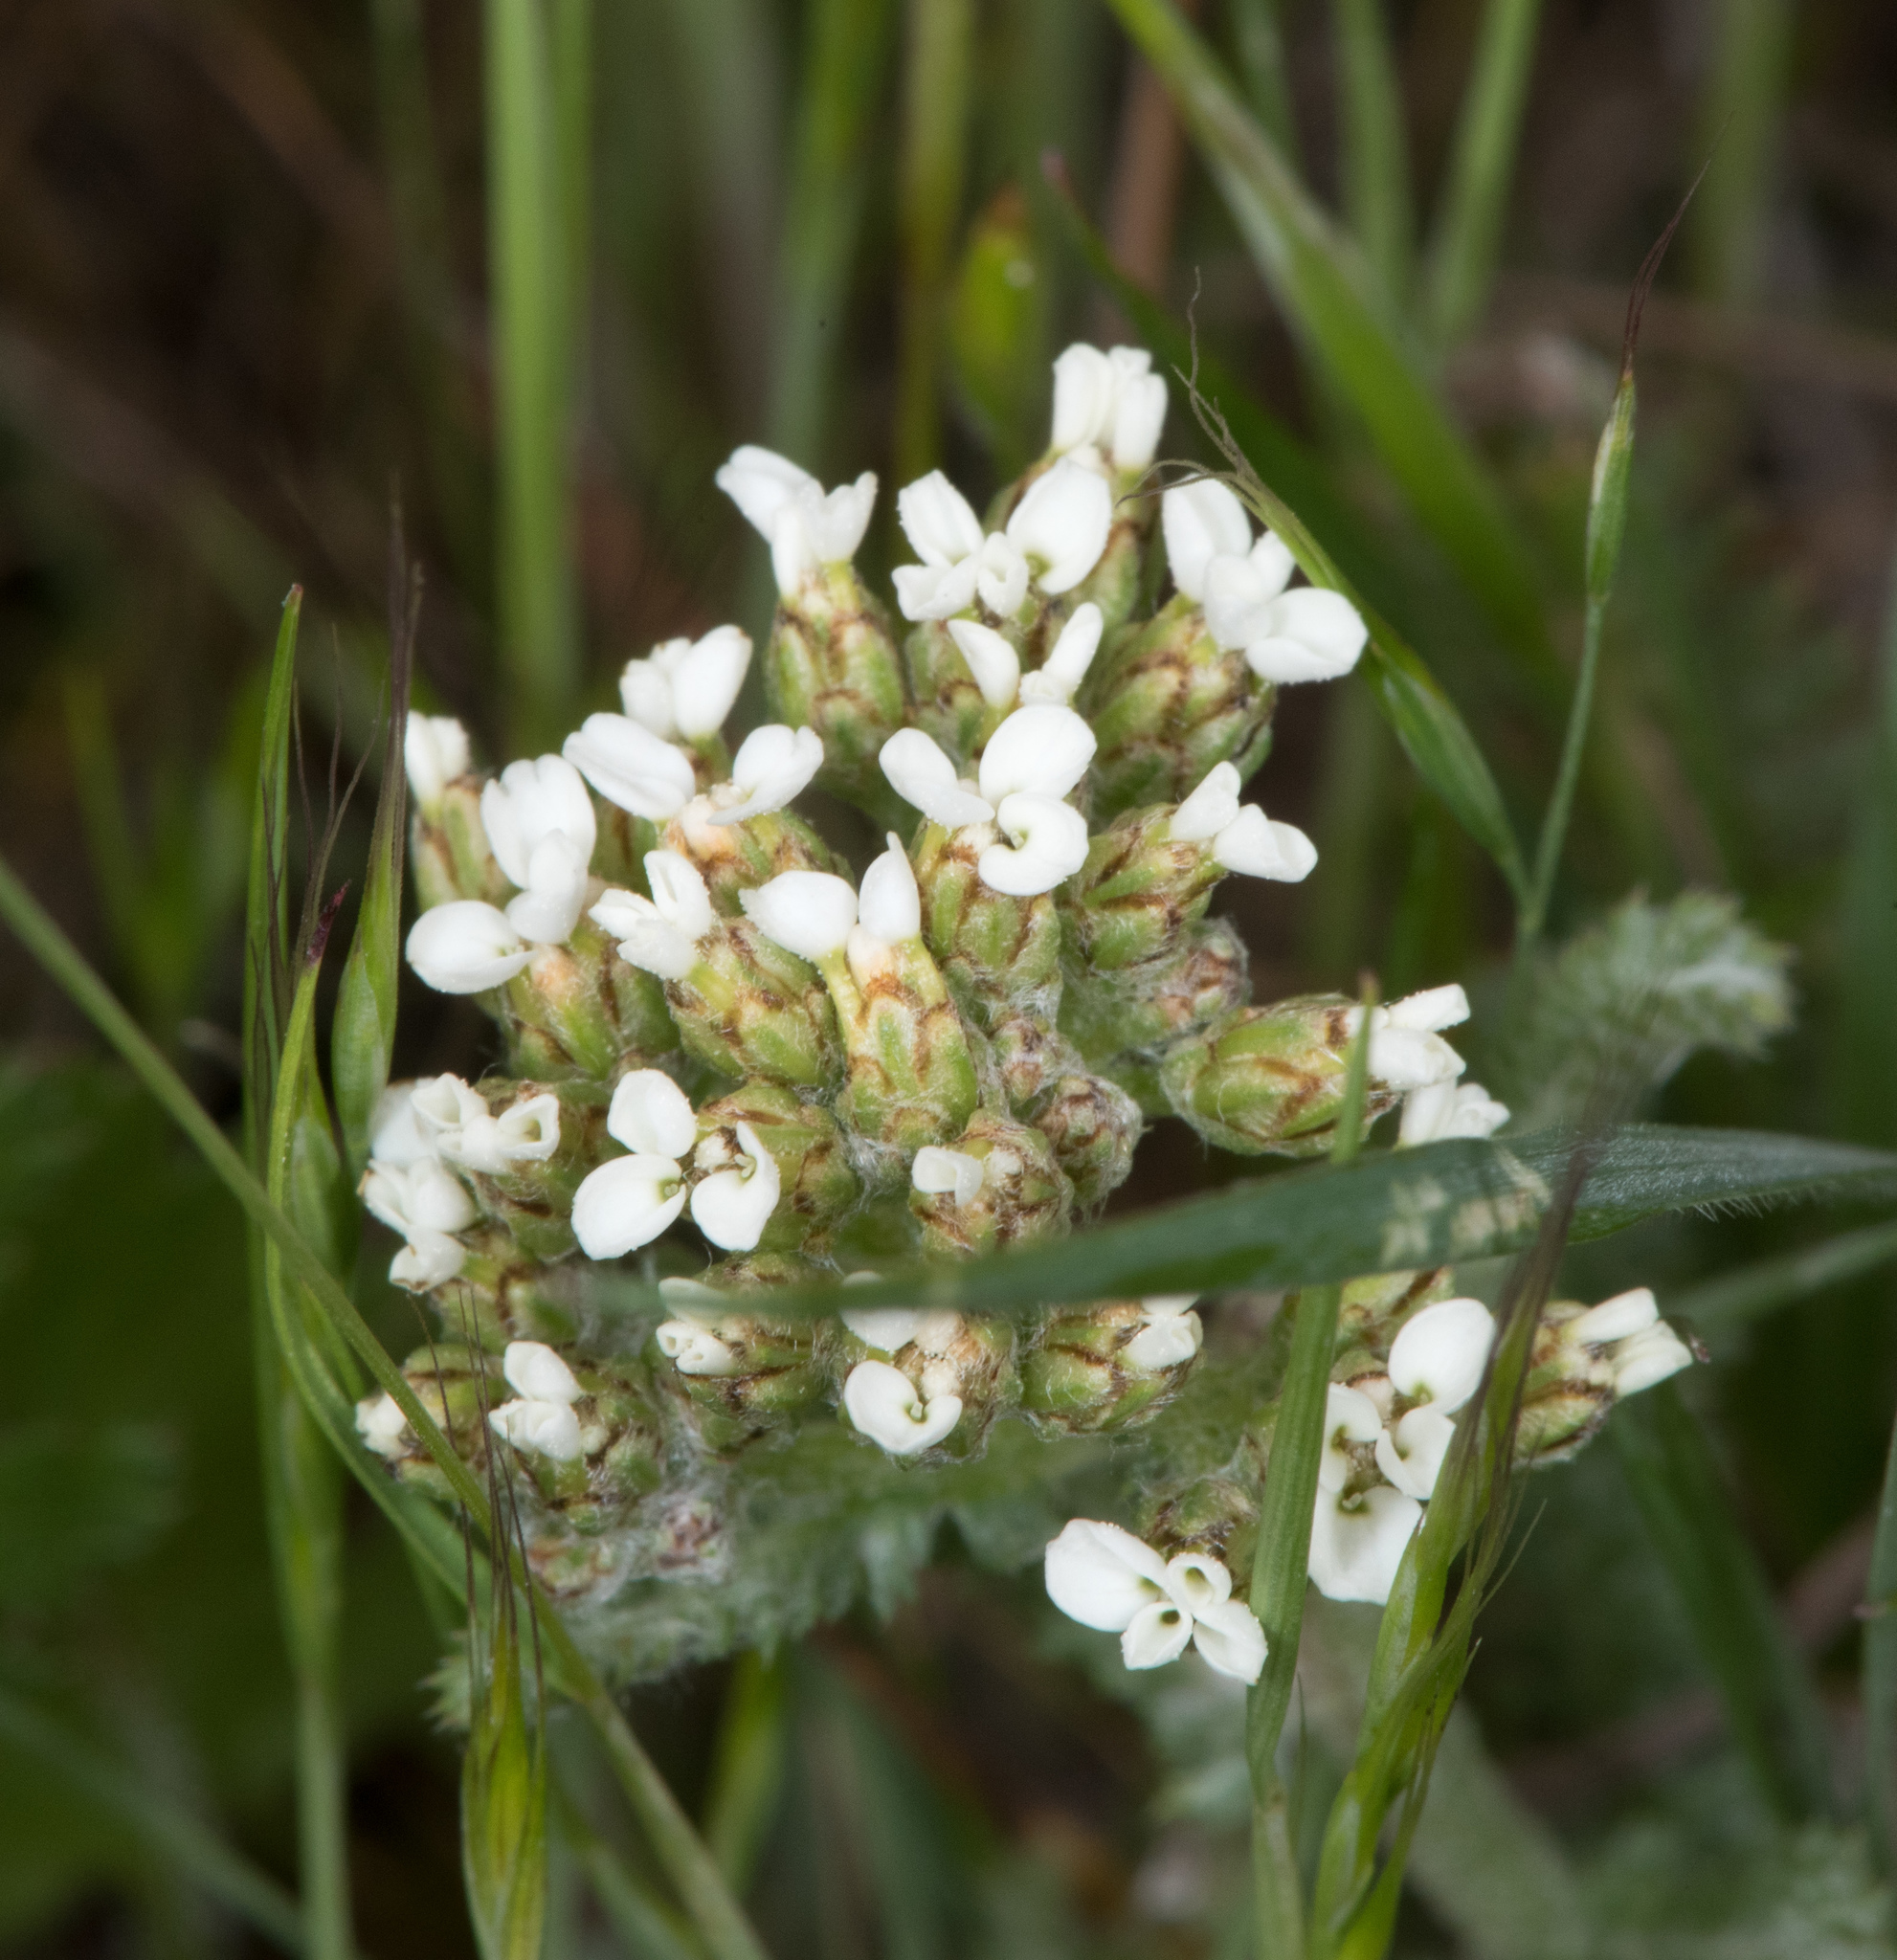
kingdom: Plantae
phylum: Tracheophyta
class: Magnoliopsida
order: Asterales
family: Asteraceae
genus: Achillea
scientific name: Achillea millefolium
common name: Yarrow
